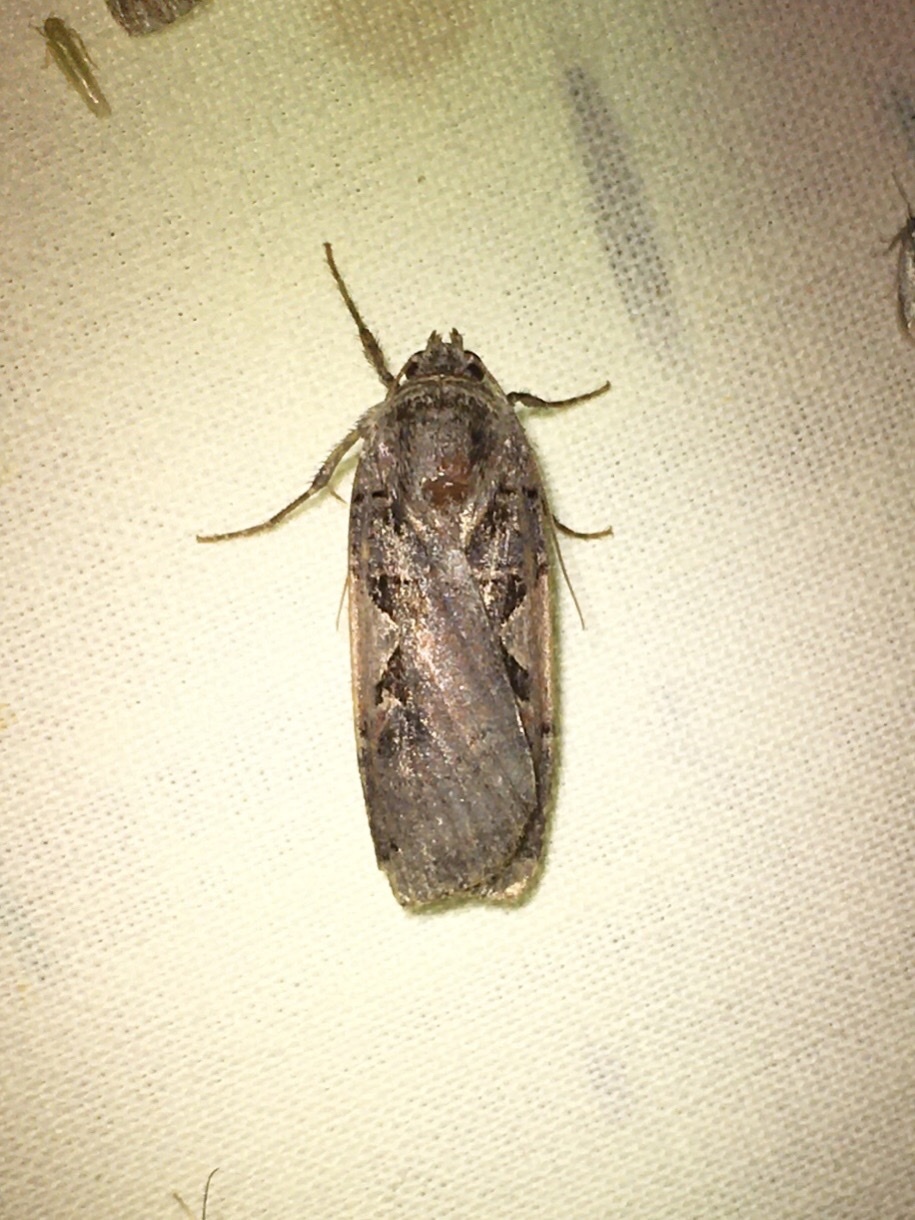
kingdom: Animalia
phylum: Arthropoda
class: Insecta
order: Lepidoptera
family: Noctuidae
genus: Xestia
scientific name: Xestia
